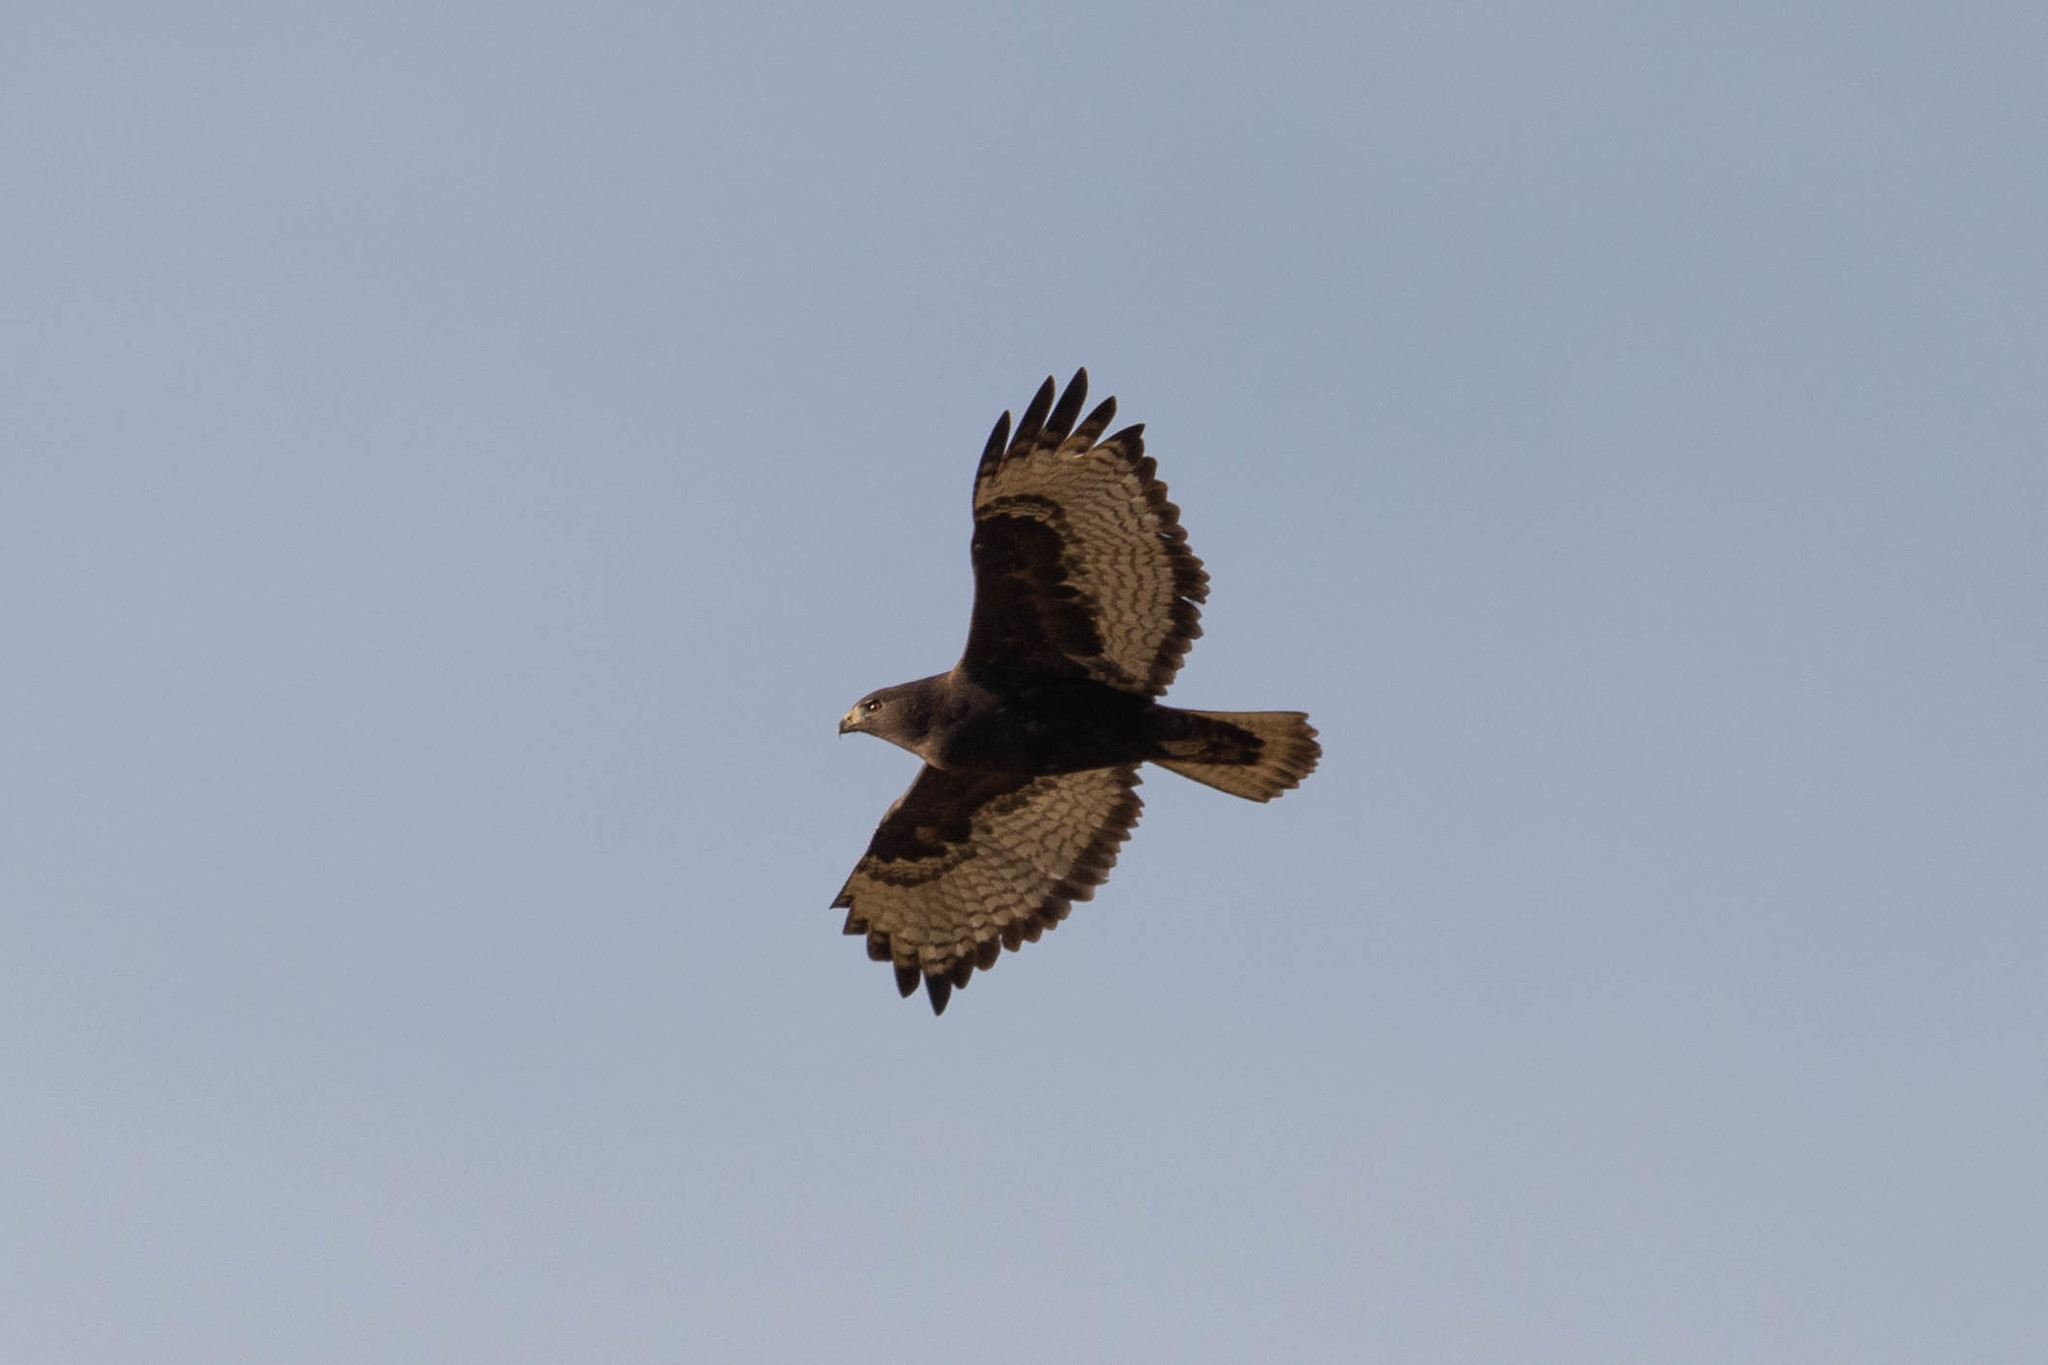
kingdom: Animalia
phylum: Chordata
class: Aves
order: Accipitriformes
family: Accipitridae
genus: Buteo
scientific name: Buteo jamaicensis
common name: Red-tailed hawk
